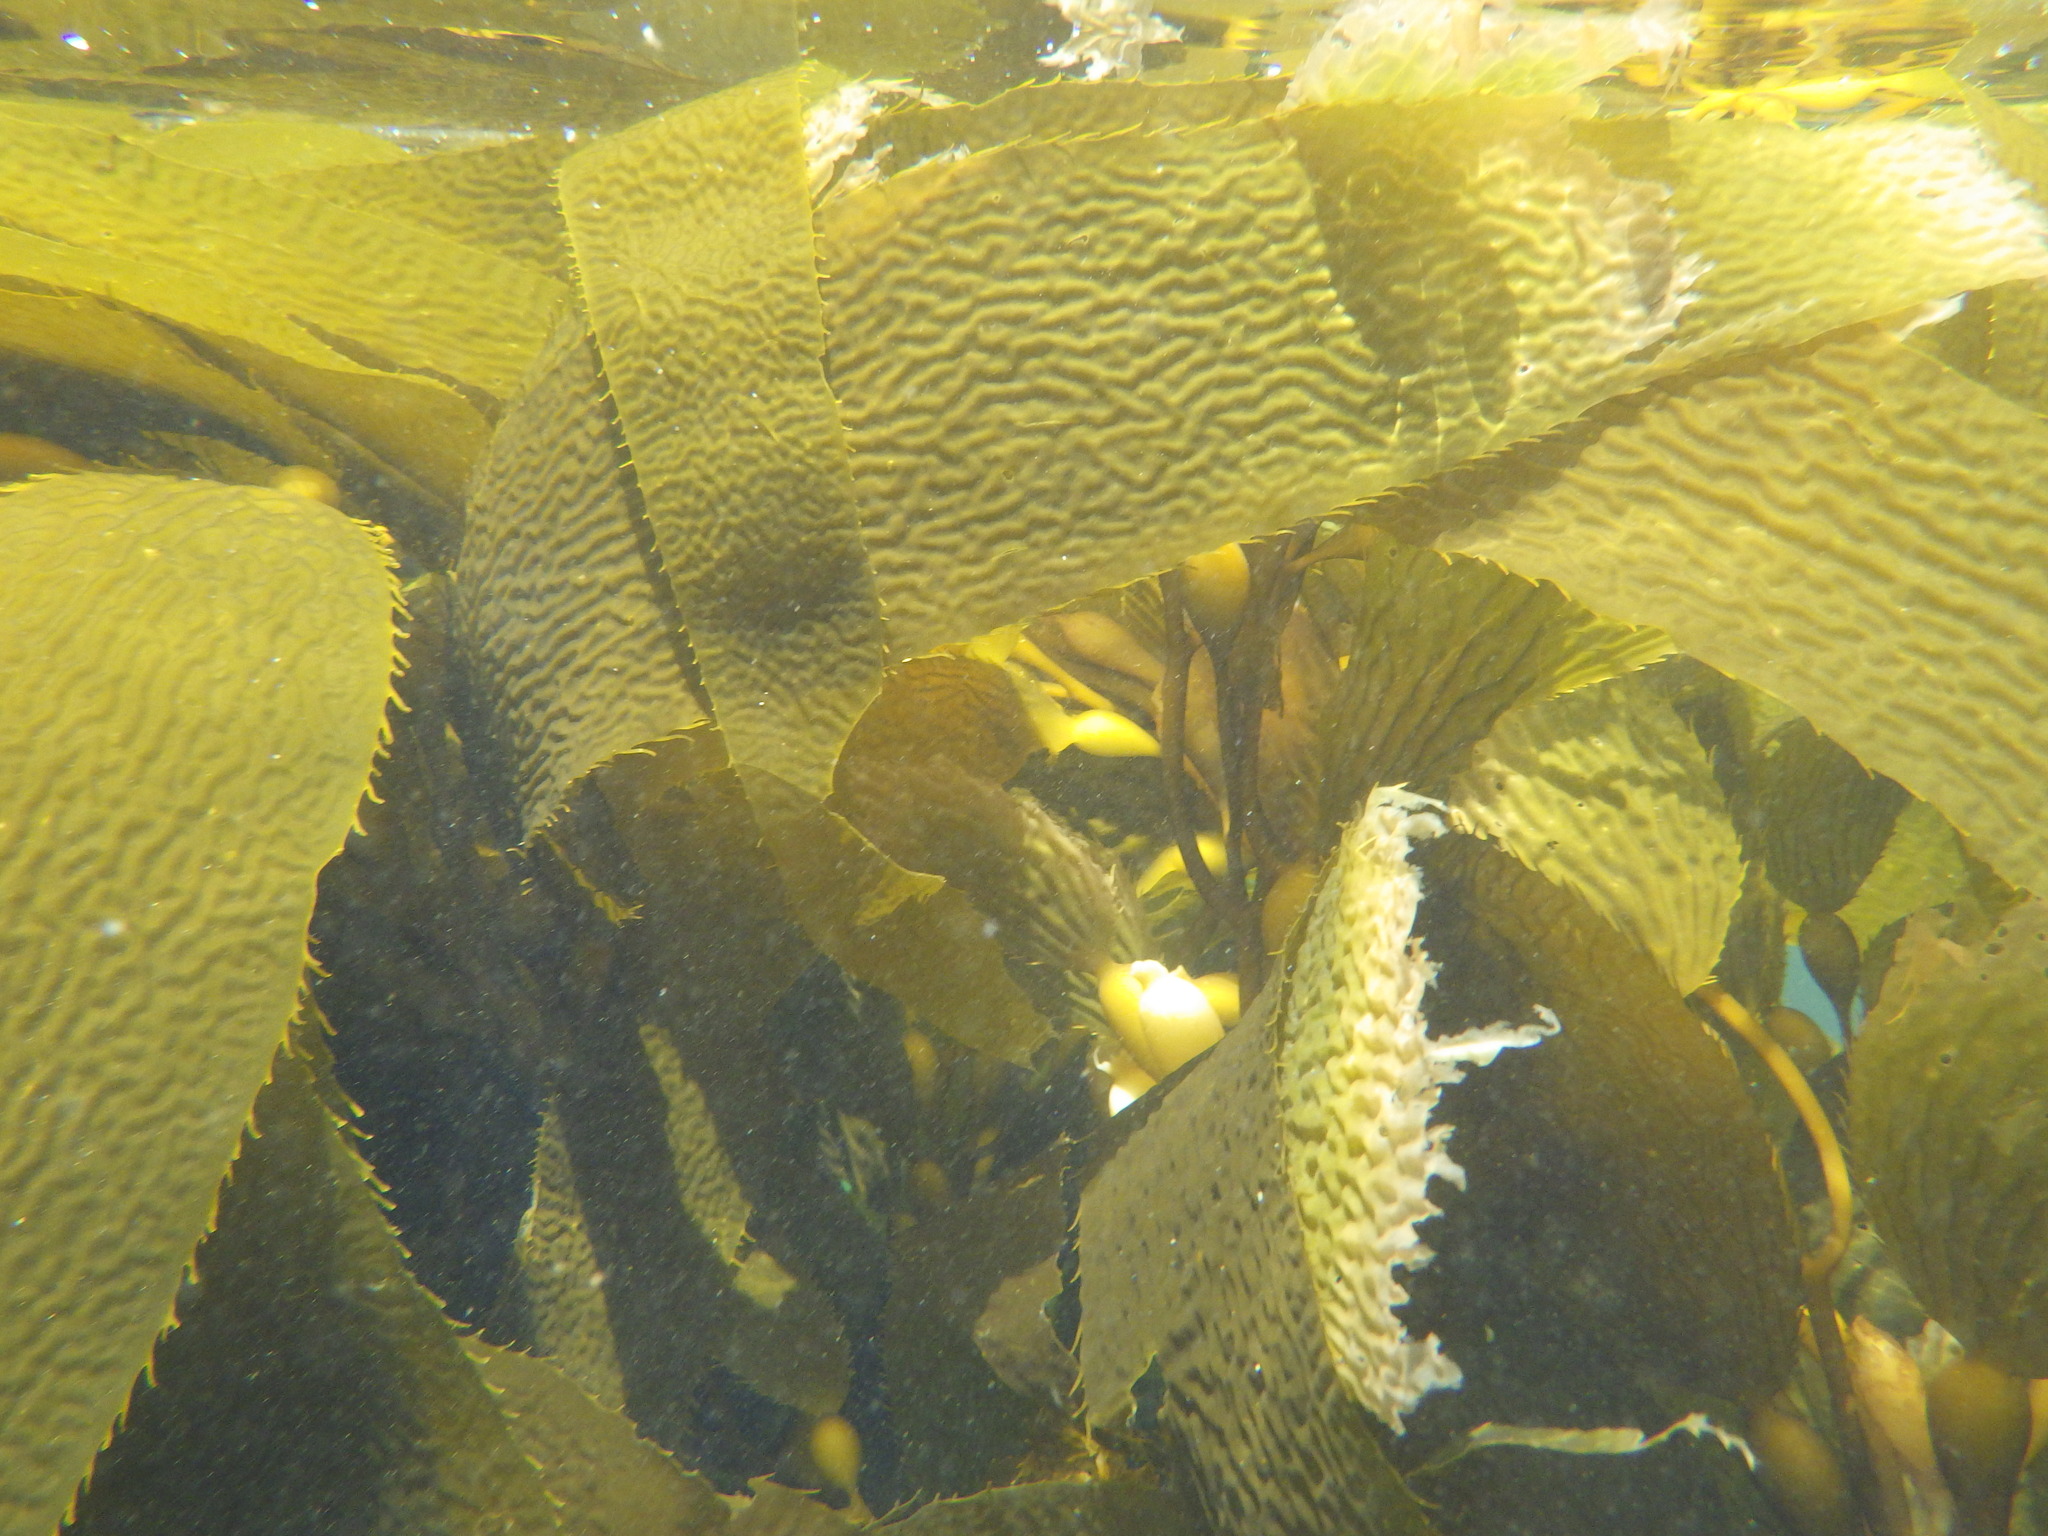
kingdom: Chromista
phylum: Ochrophyta
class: Phaeophyceae
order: Laminariales
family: Laminariaceae
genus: Macrocystis
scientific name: Macrocystis pyrifera
